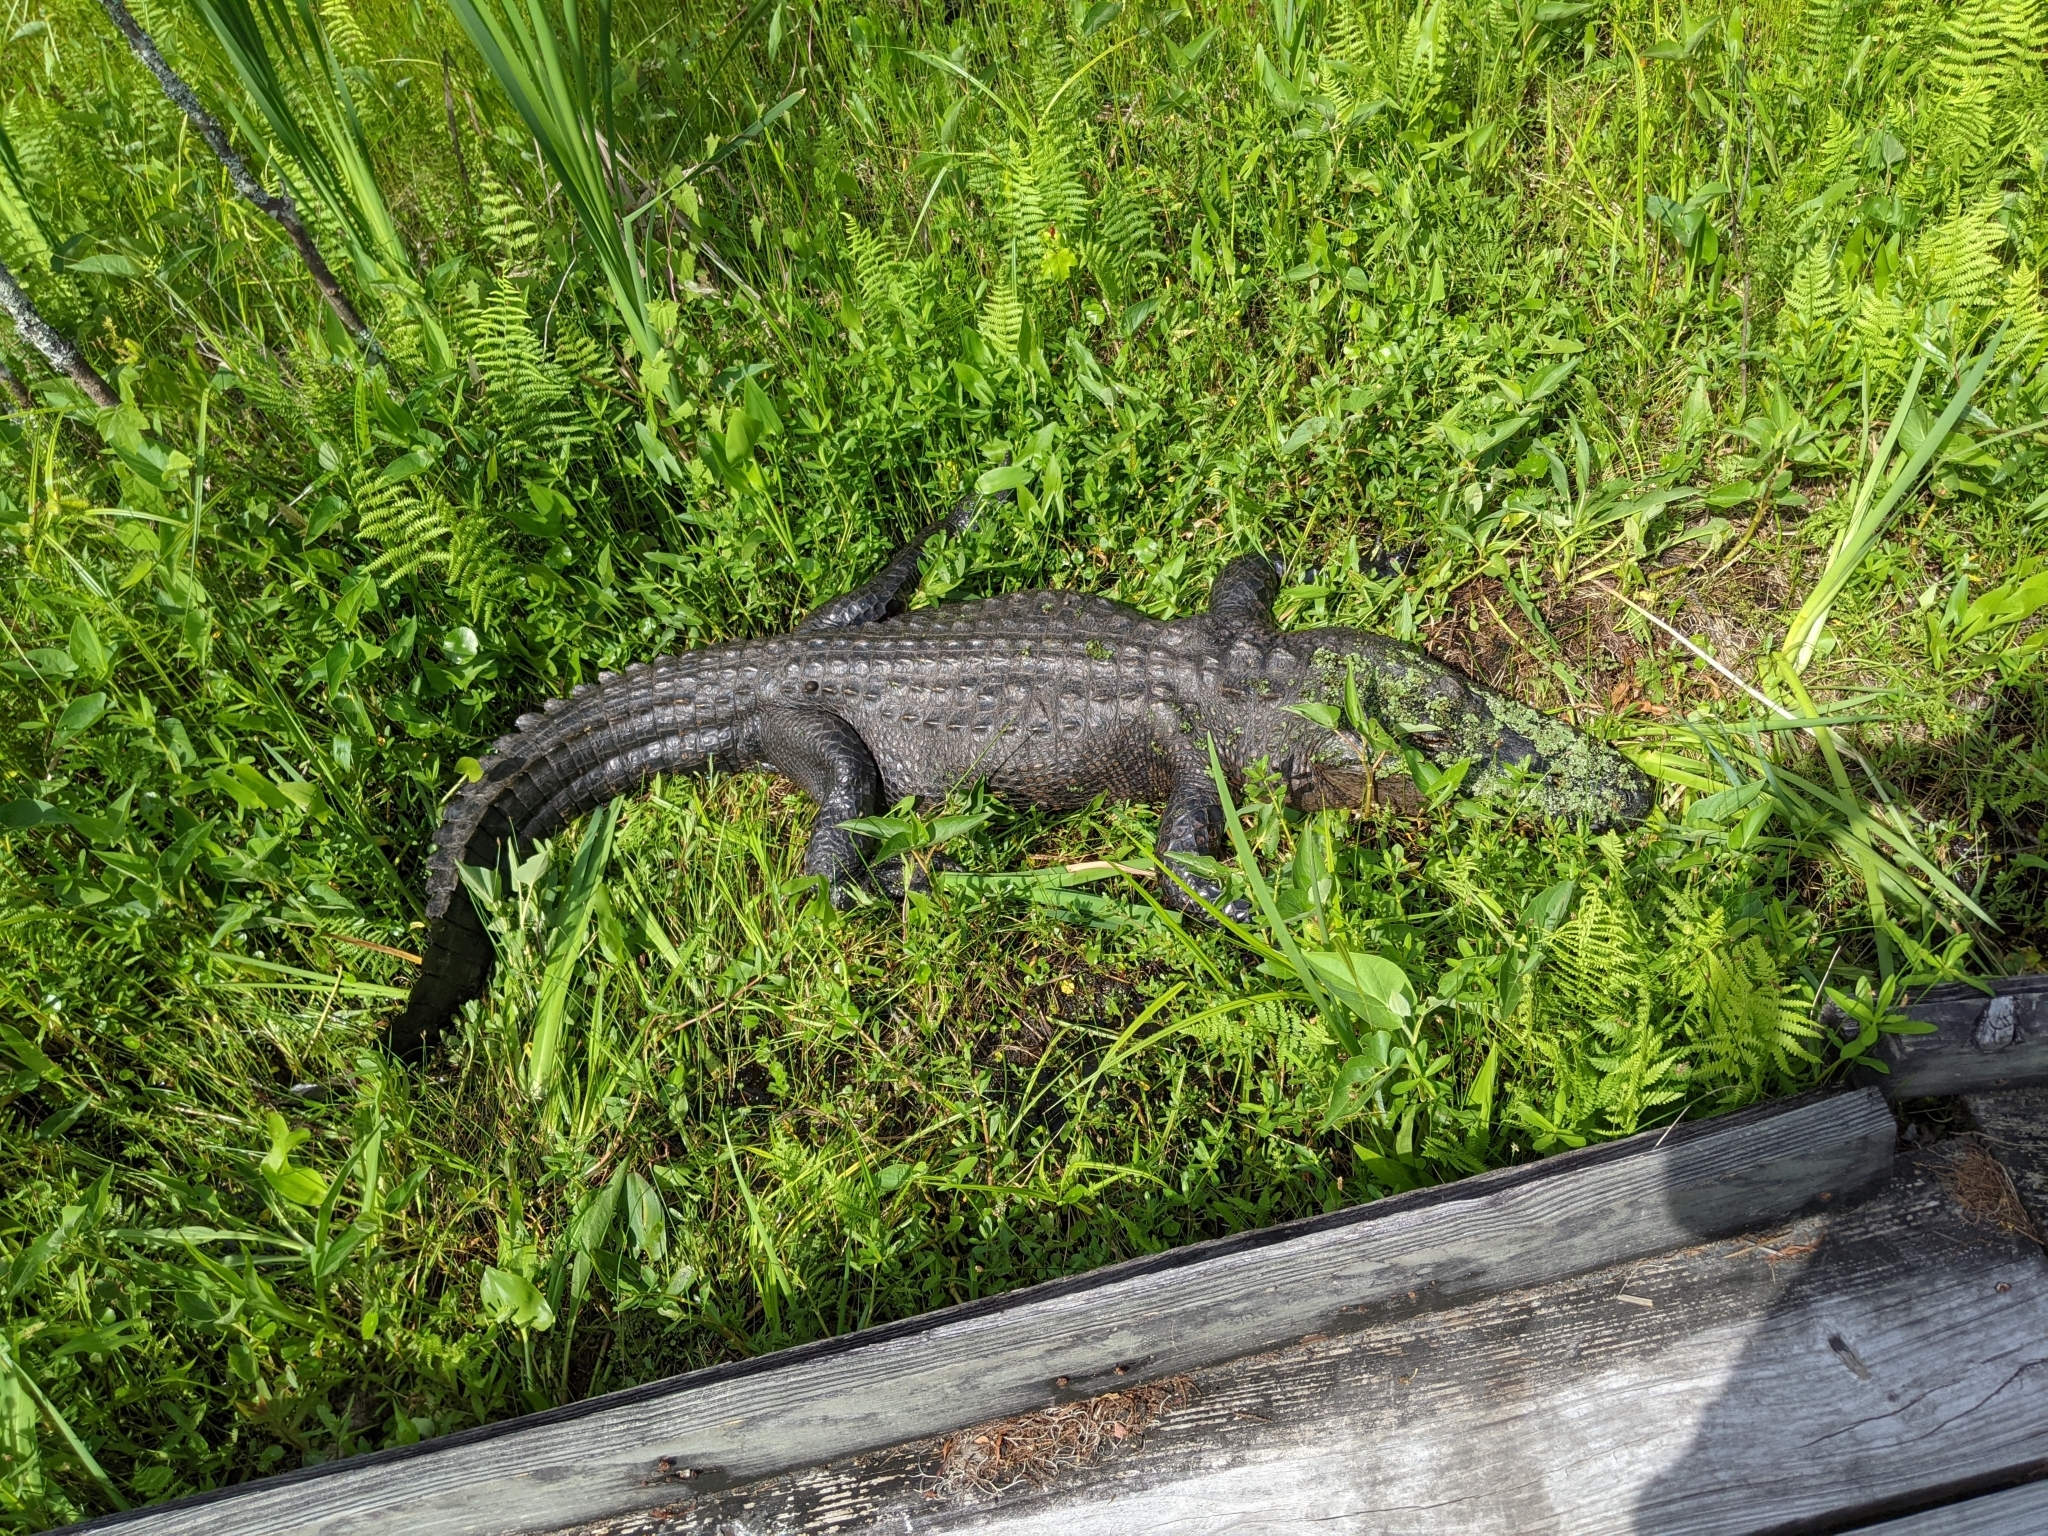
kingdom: Animalia
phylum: Chordata
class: Crocodylia
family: Alligatoridae
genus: Alligator
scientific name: Alligator mississippiensis
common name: American alligator
